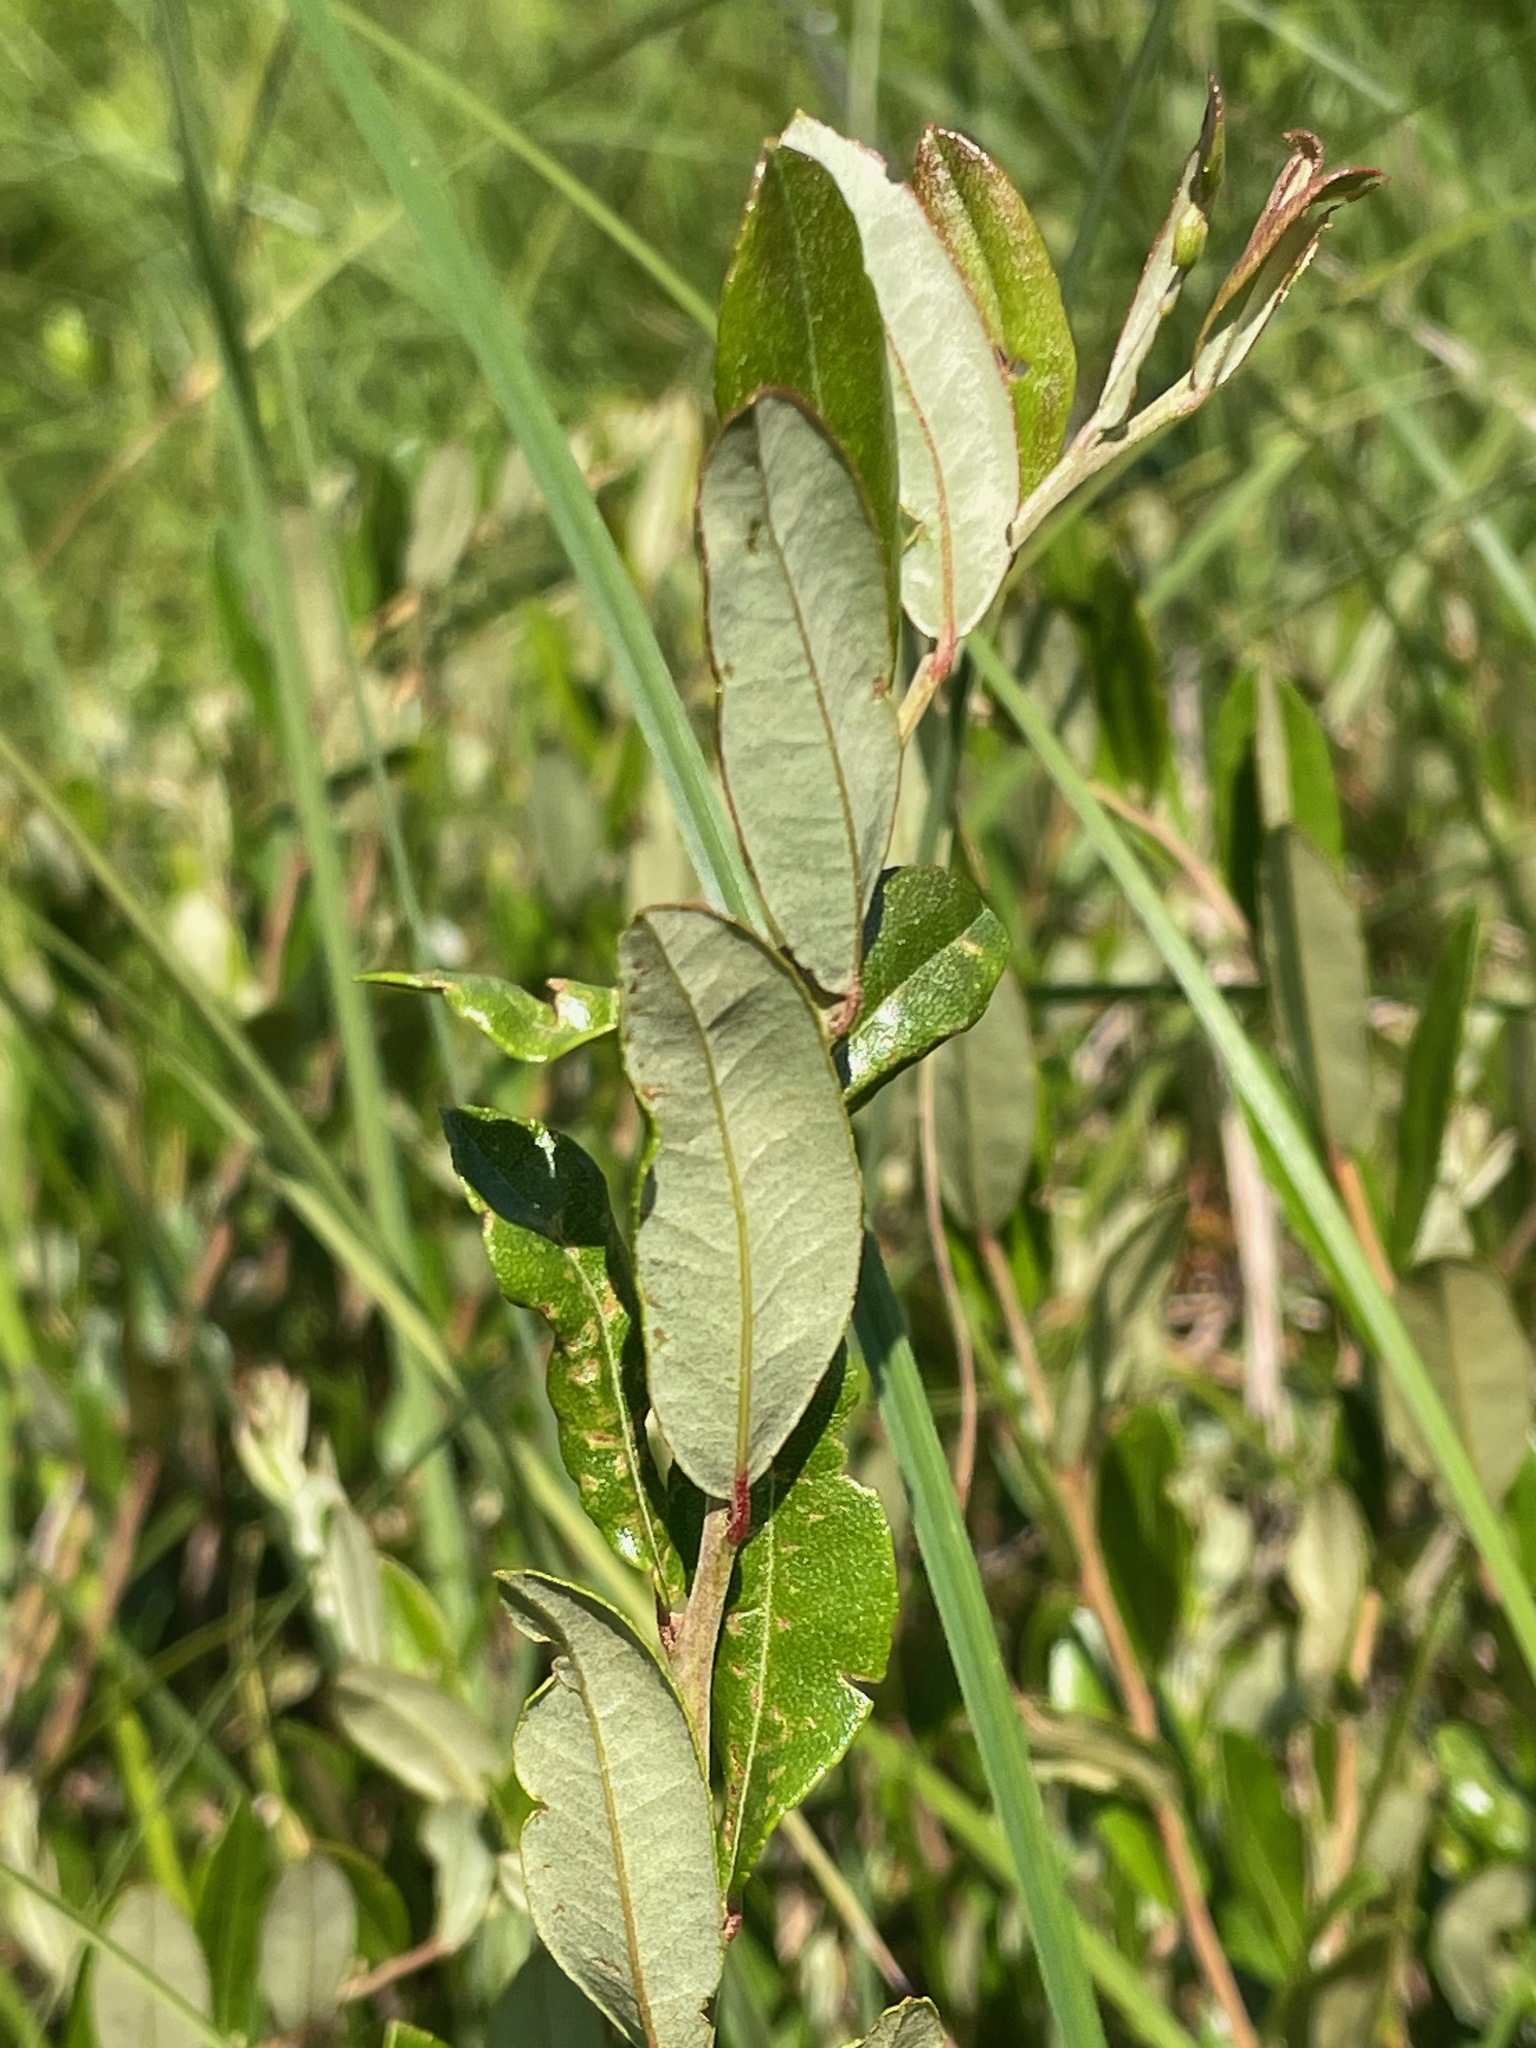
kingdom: Plantae
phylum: Tracheophyta
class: Magnoliopsida
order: Ericales
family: Ericaceae
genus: Chamaedaphne
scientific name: Chamaedaphne calyculata
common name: Leatherleaf
